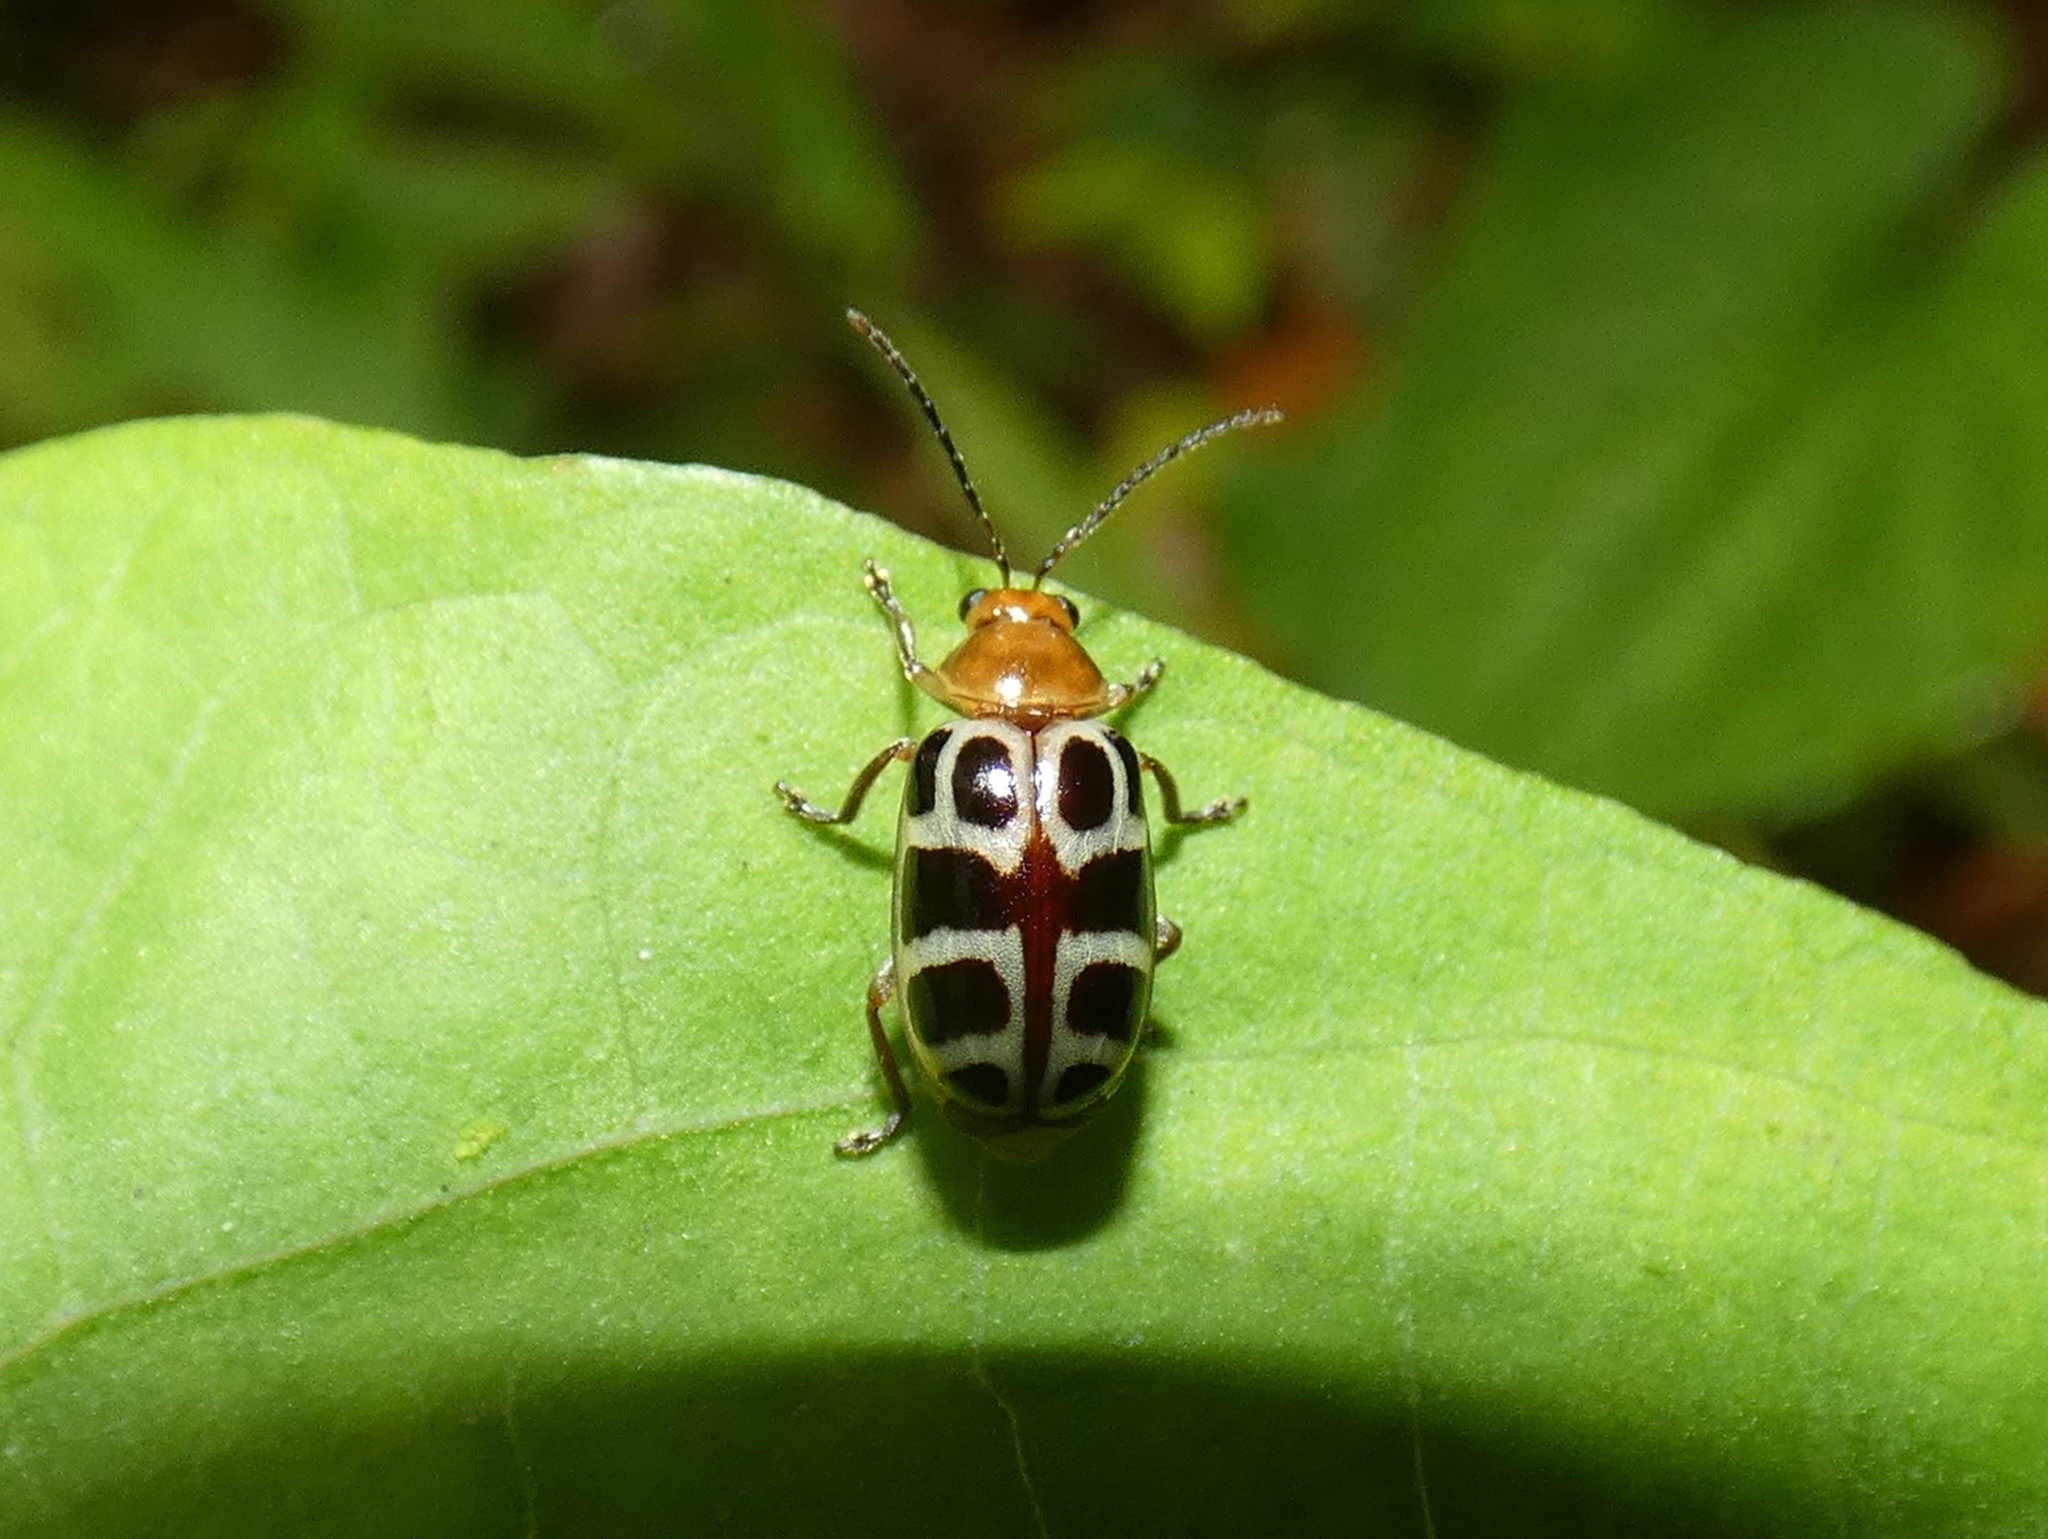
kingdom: Animalia
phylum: Arthropoda
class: Insecta
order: Coleoptera
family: Chrysomelidae
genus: Exora
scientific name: Exora olivacea
